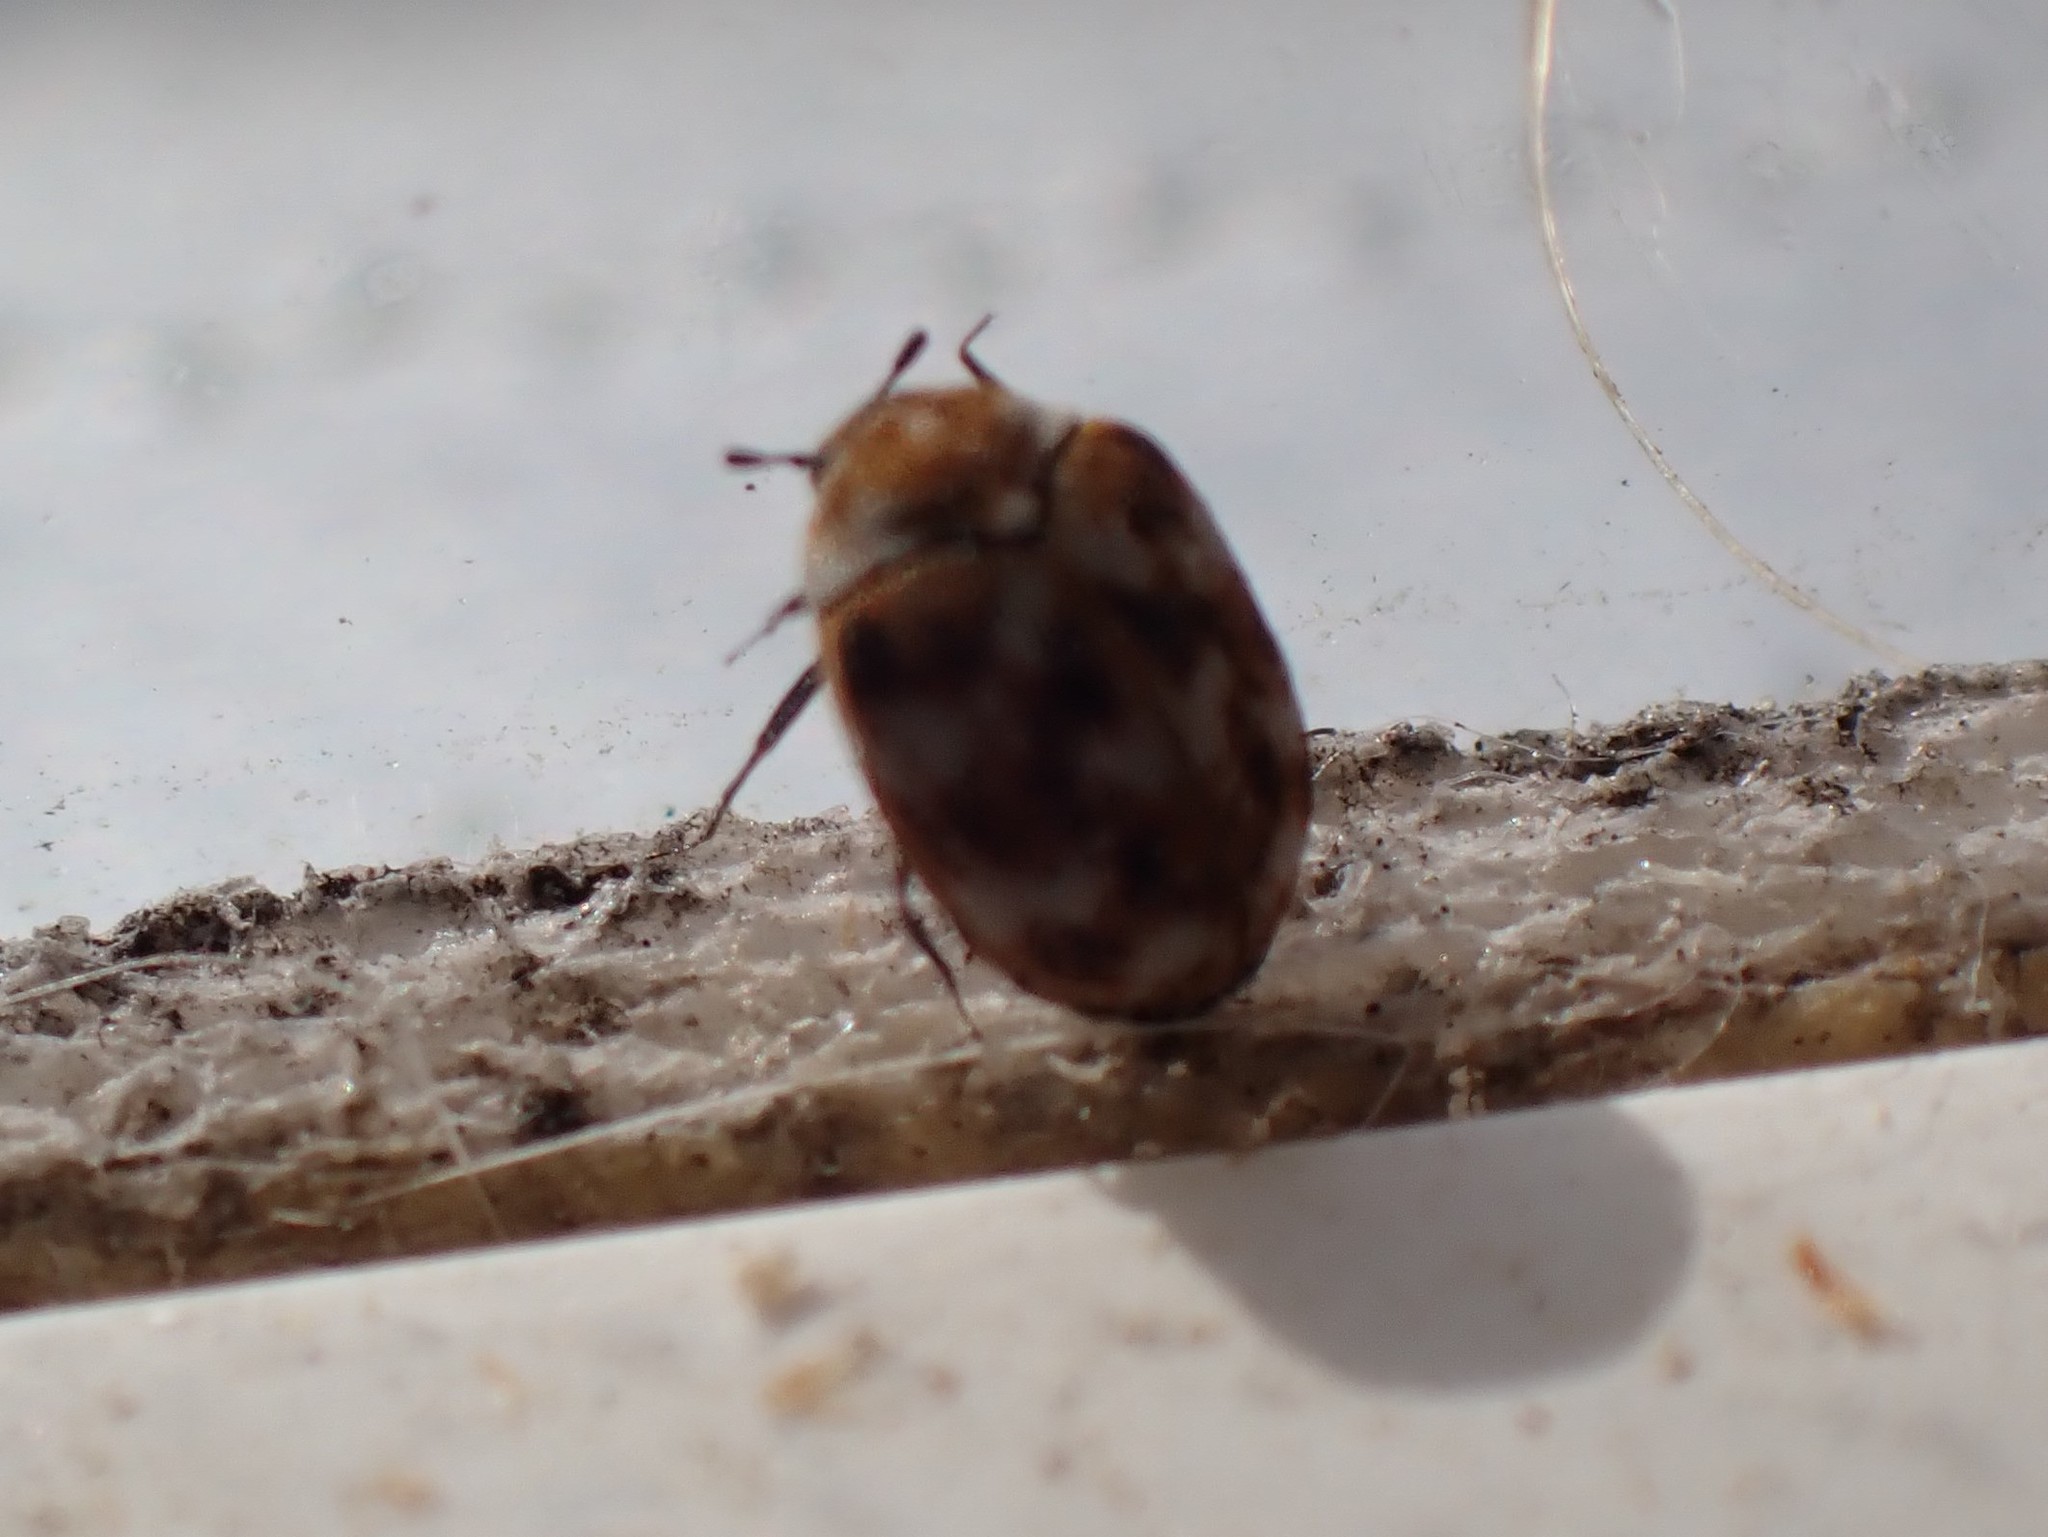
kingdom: Animalia
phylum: Arthropoda
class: Insecta
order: Coleoptera
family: Dermestidae
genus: Anthrenus
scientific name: Anthrenus verbasci
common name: Varied carpet beetle
